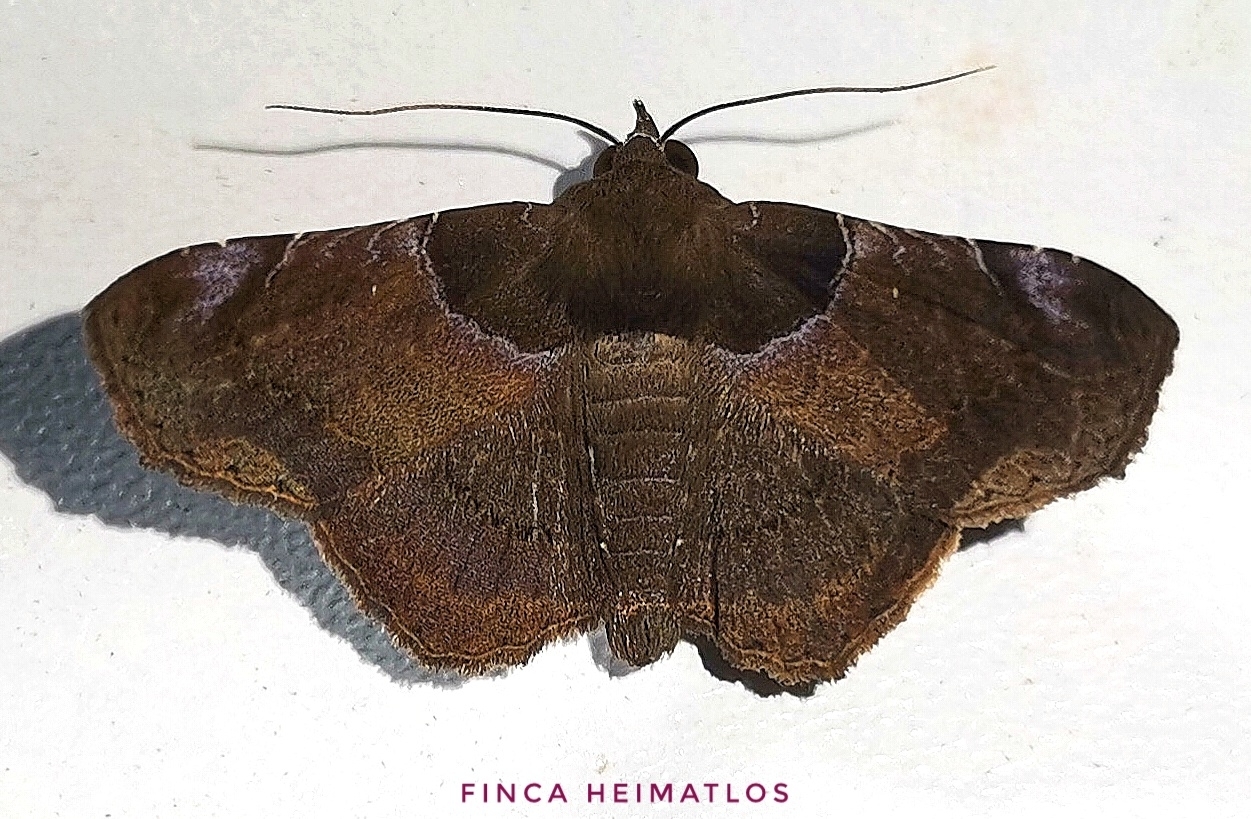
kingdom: Animalia
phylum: Arthropoda
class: Insecta
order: Lepidoptera
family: Erebidae
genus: Bendis
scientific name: Bendis thara
